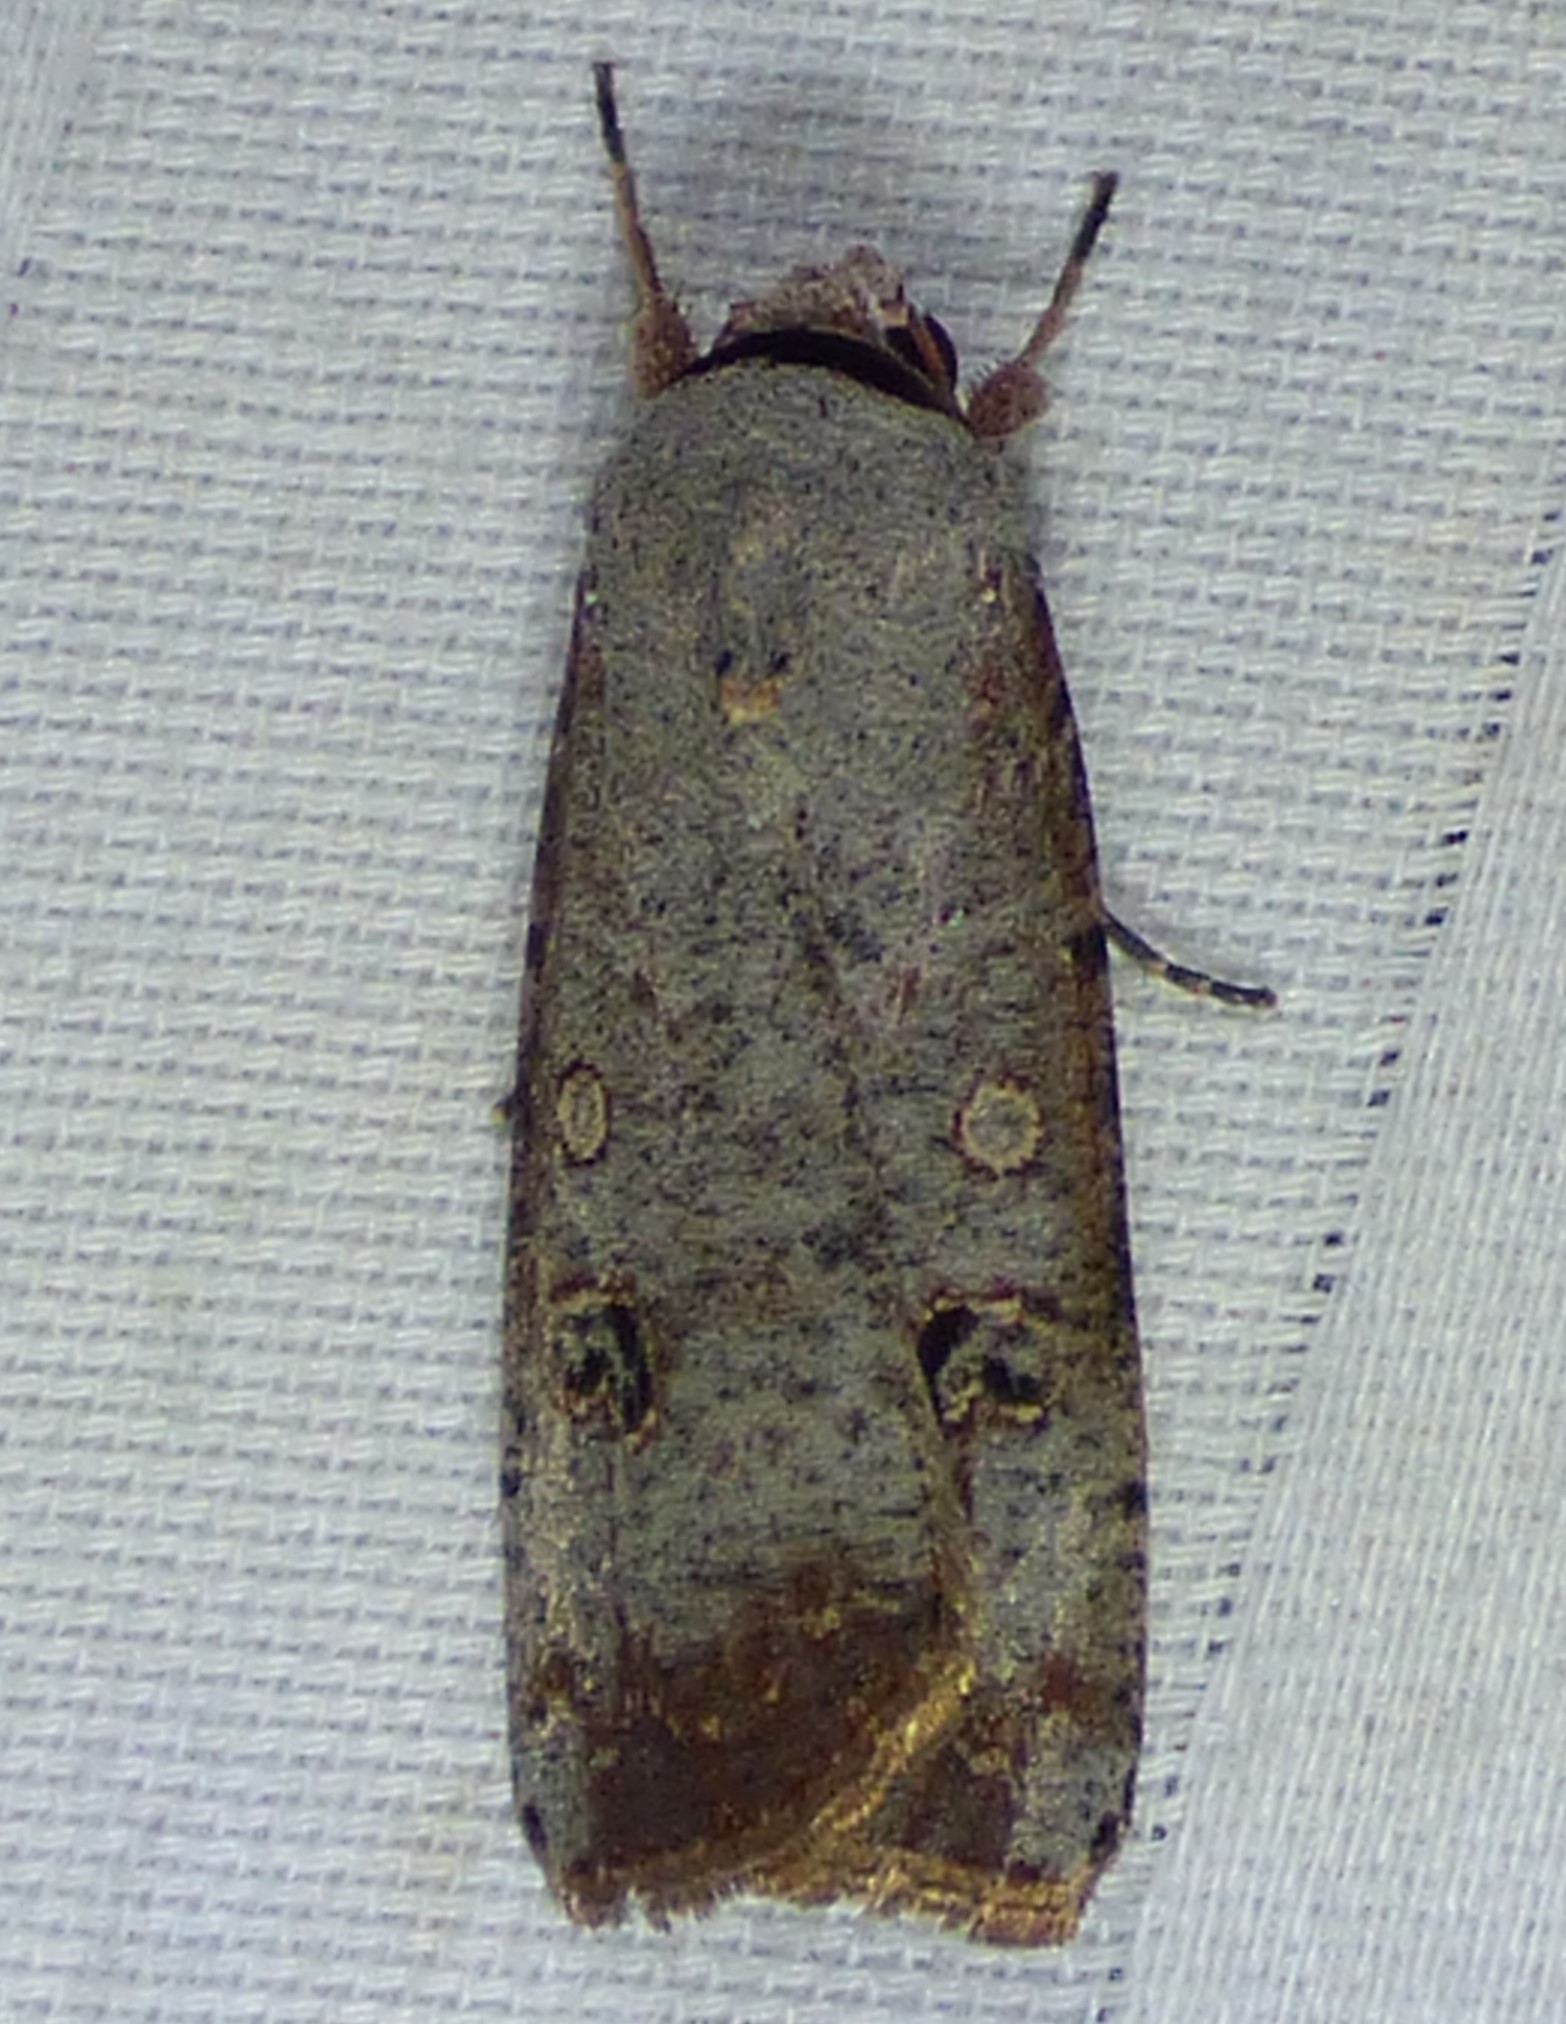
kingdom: Animalia
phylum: Arthropoda
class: Insecta
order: Lepidoptera
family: Noctuidae
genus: Anicla
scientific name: Anicla infecta
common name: Green cutworm
